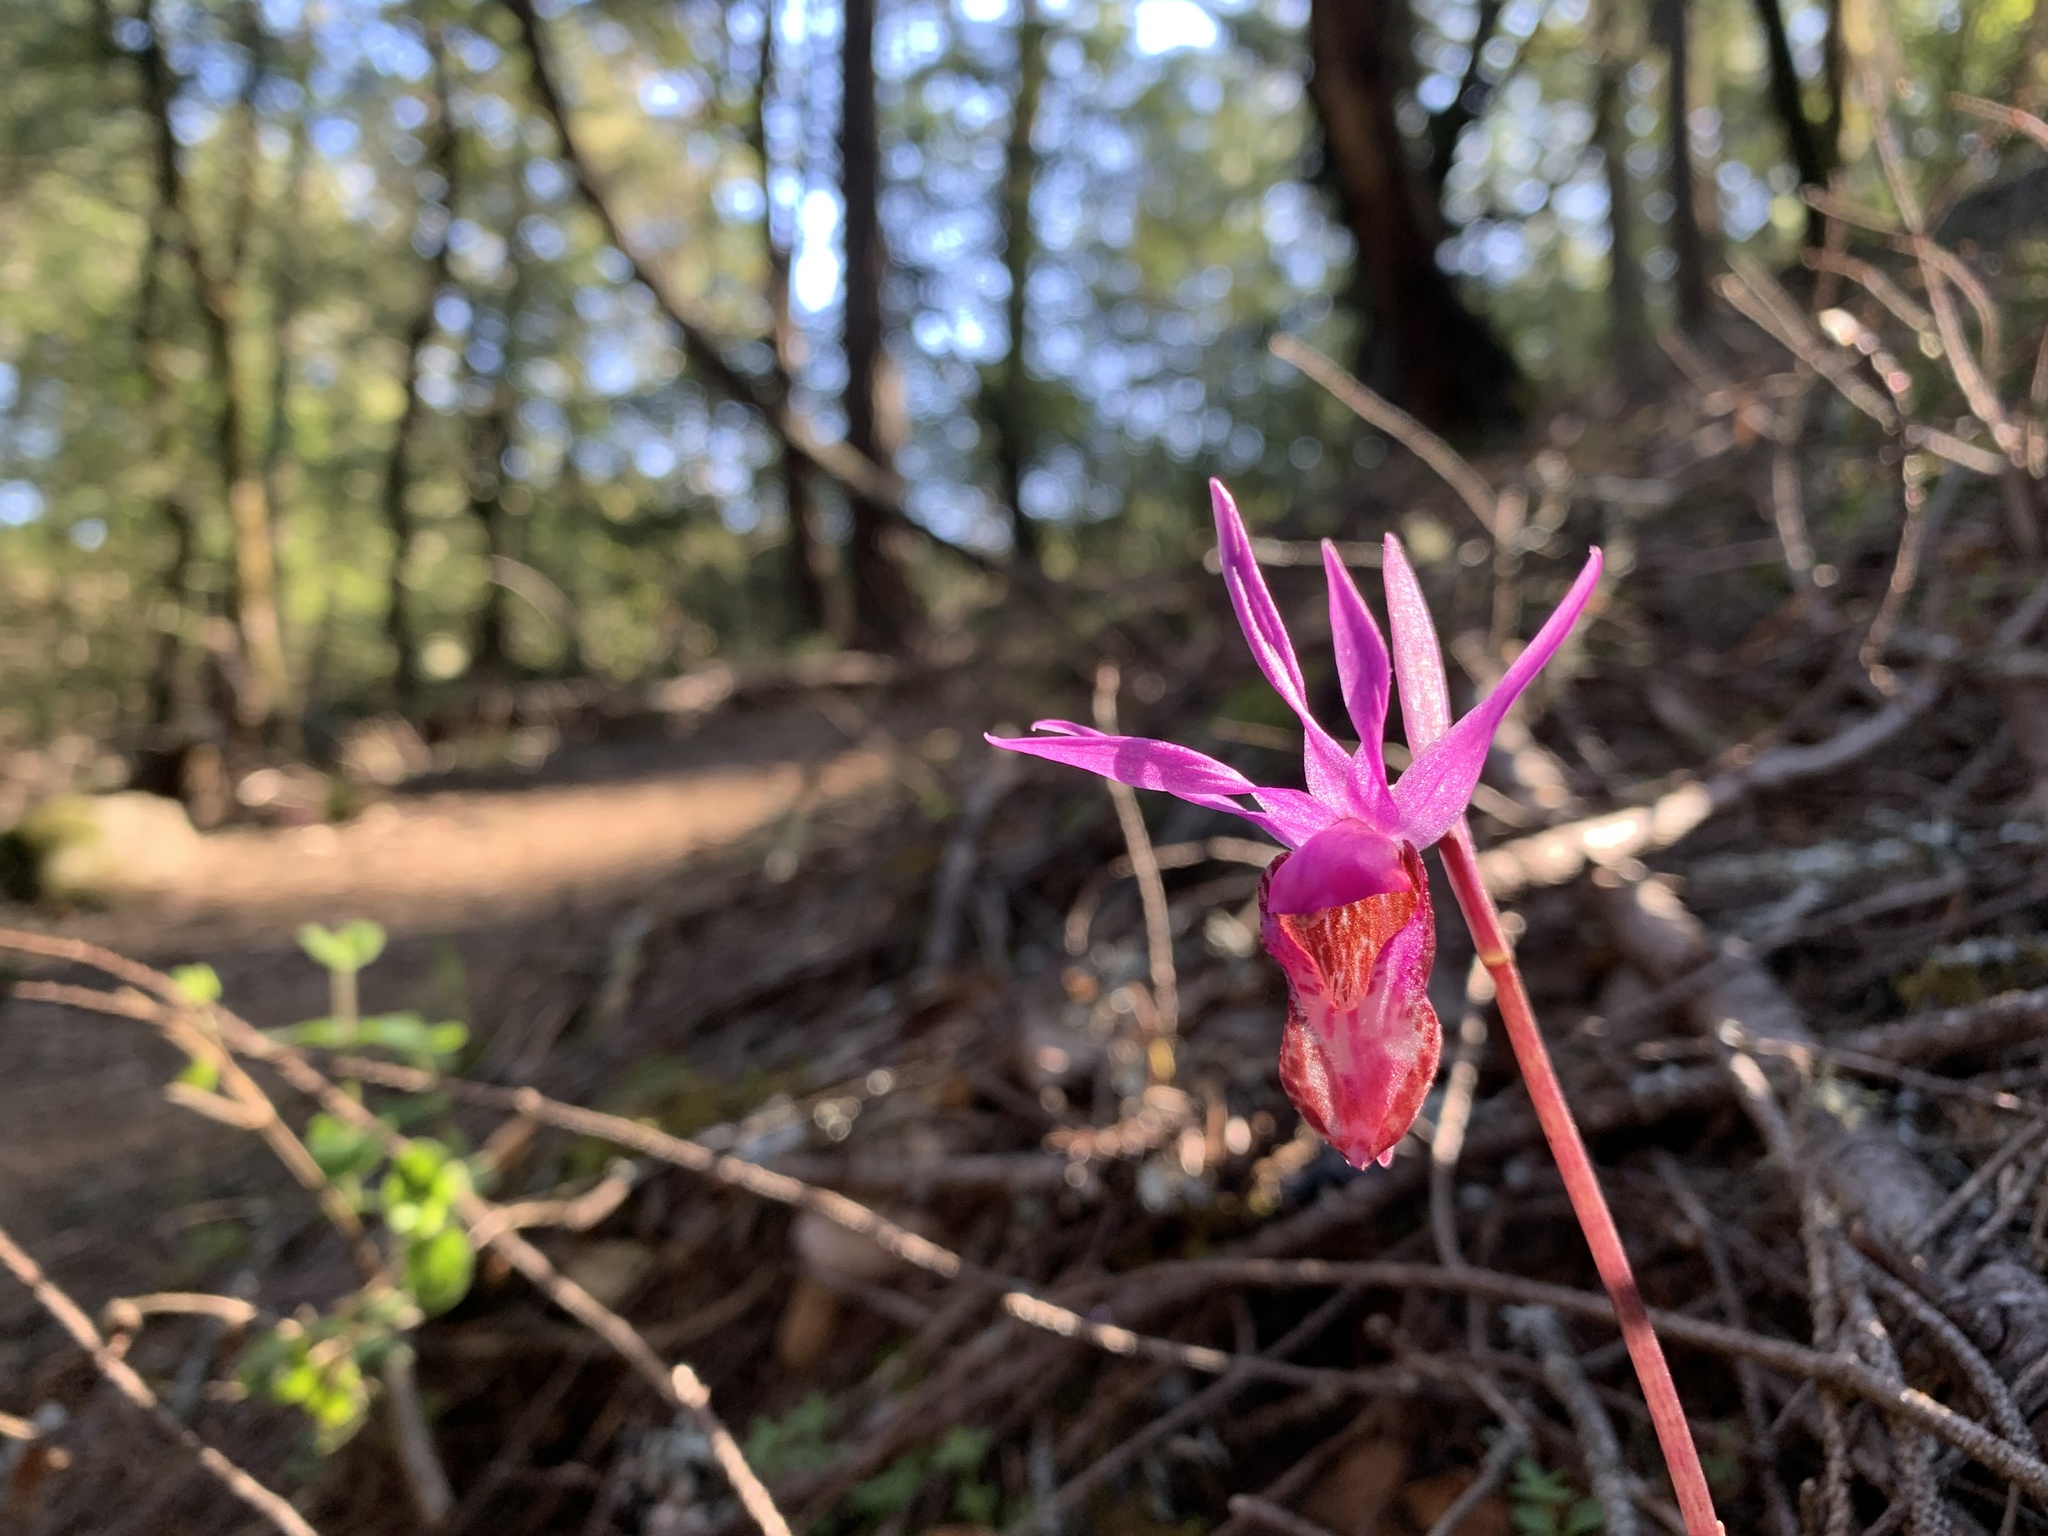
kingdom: Plantae
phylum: Tracheophyta
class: Liliopsida
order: Asparagales
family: Orchidaceae
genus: Calypso
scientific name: Calypso bulbosa
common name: Calypso
